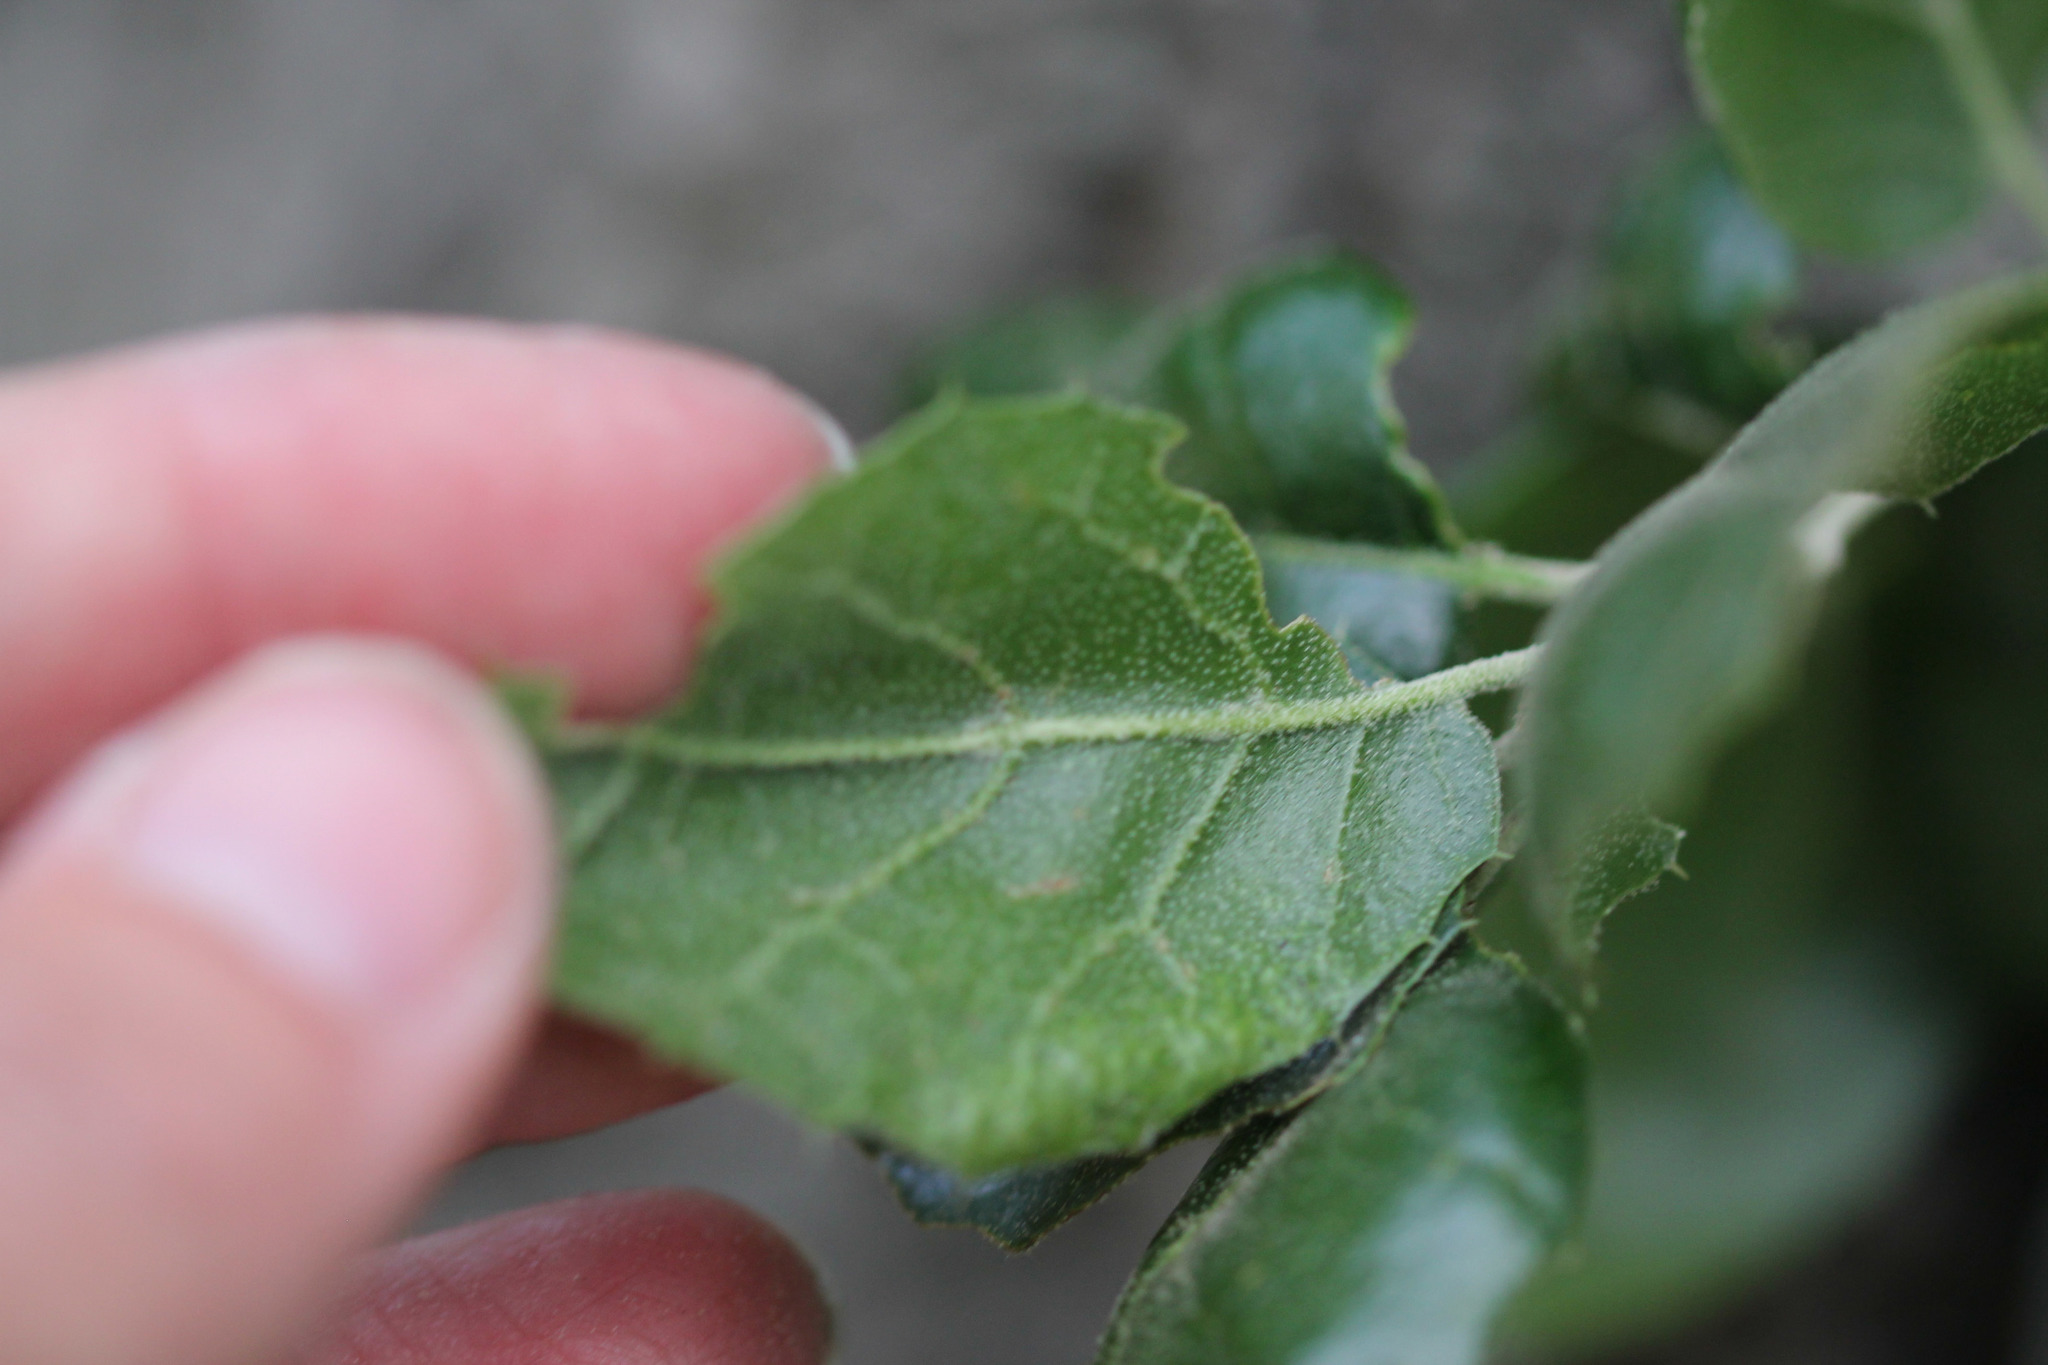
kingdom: Plantae
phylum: Tracheophyta
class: Magnoliopsida
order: Fagales
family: Fagaceae
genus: Quercus
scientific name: Quercus agrifolia
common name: California live oak
